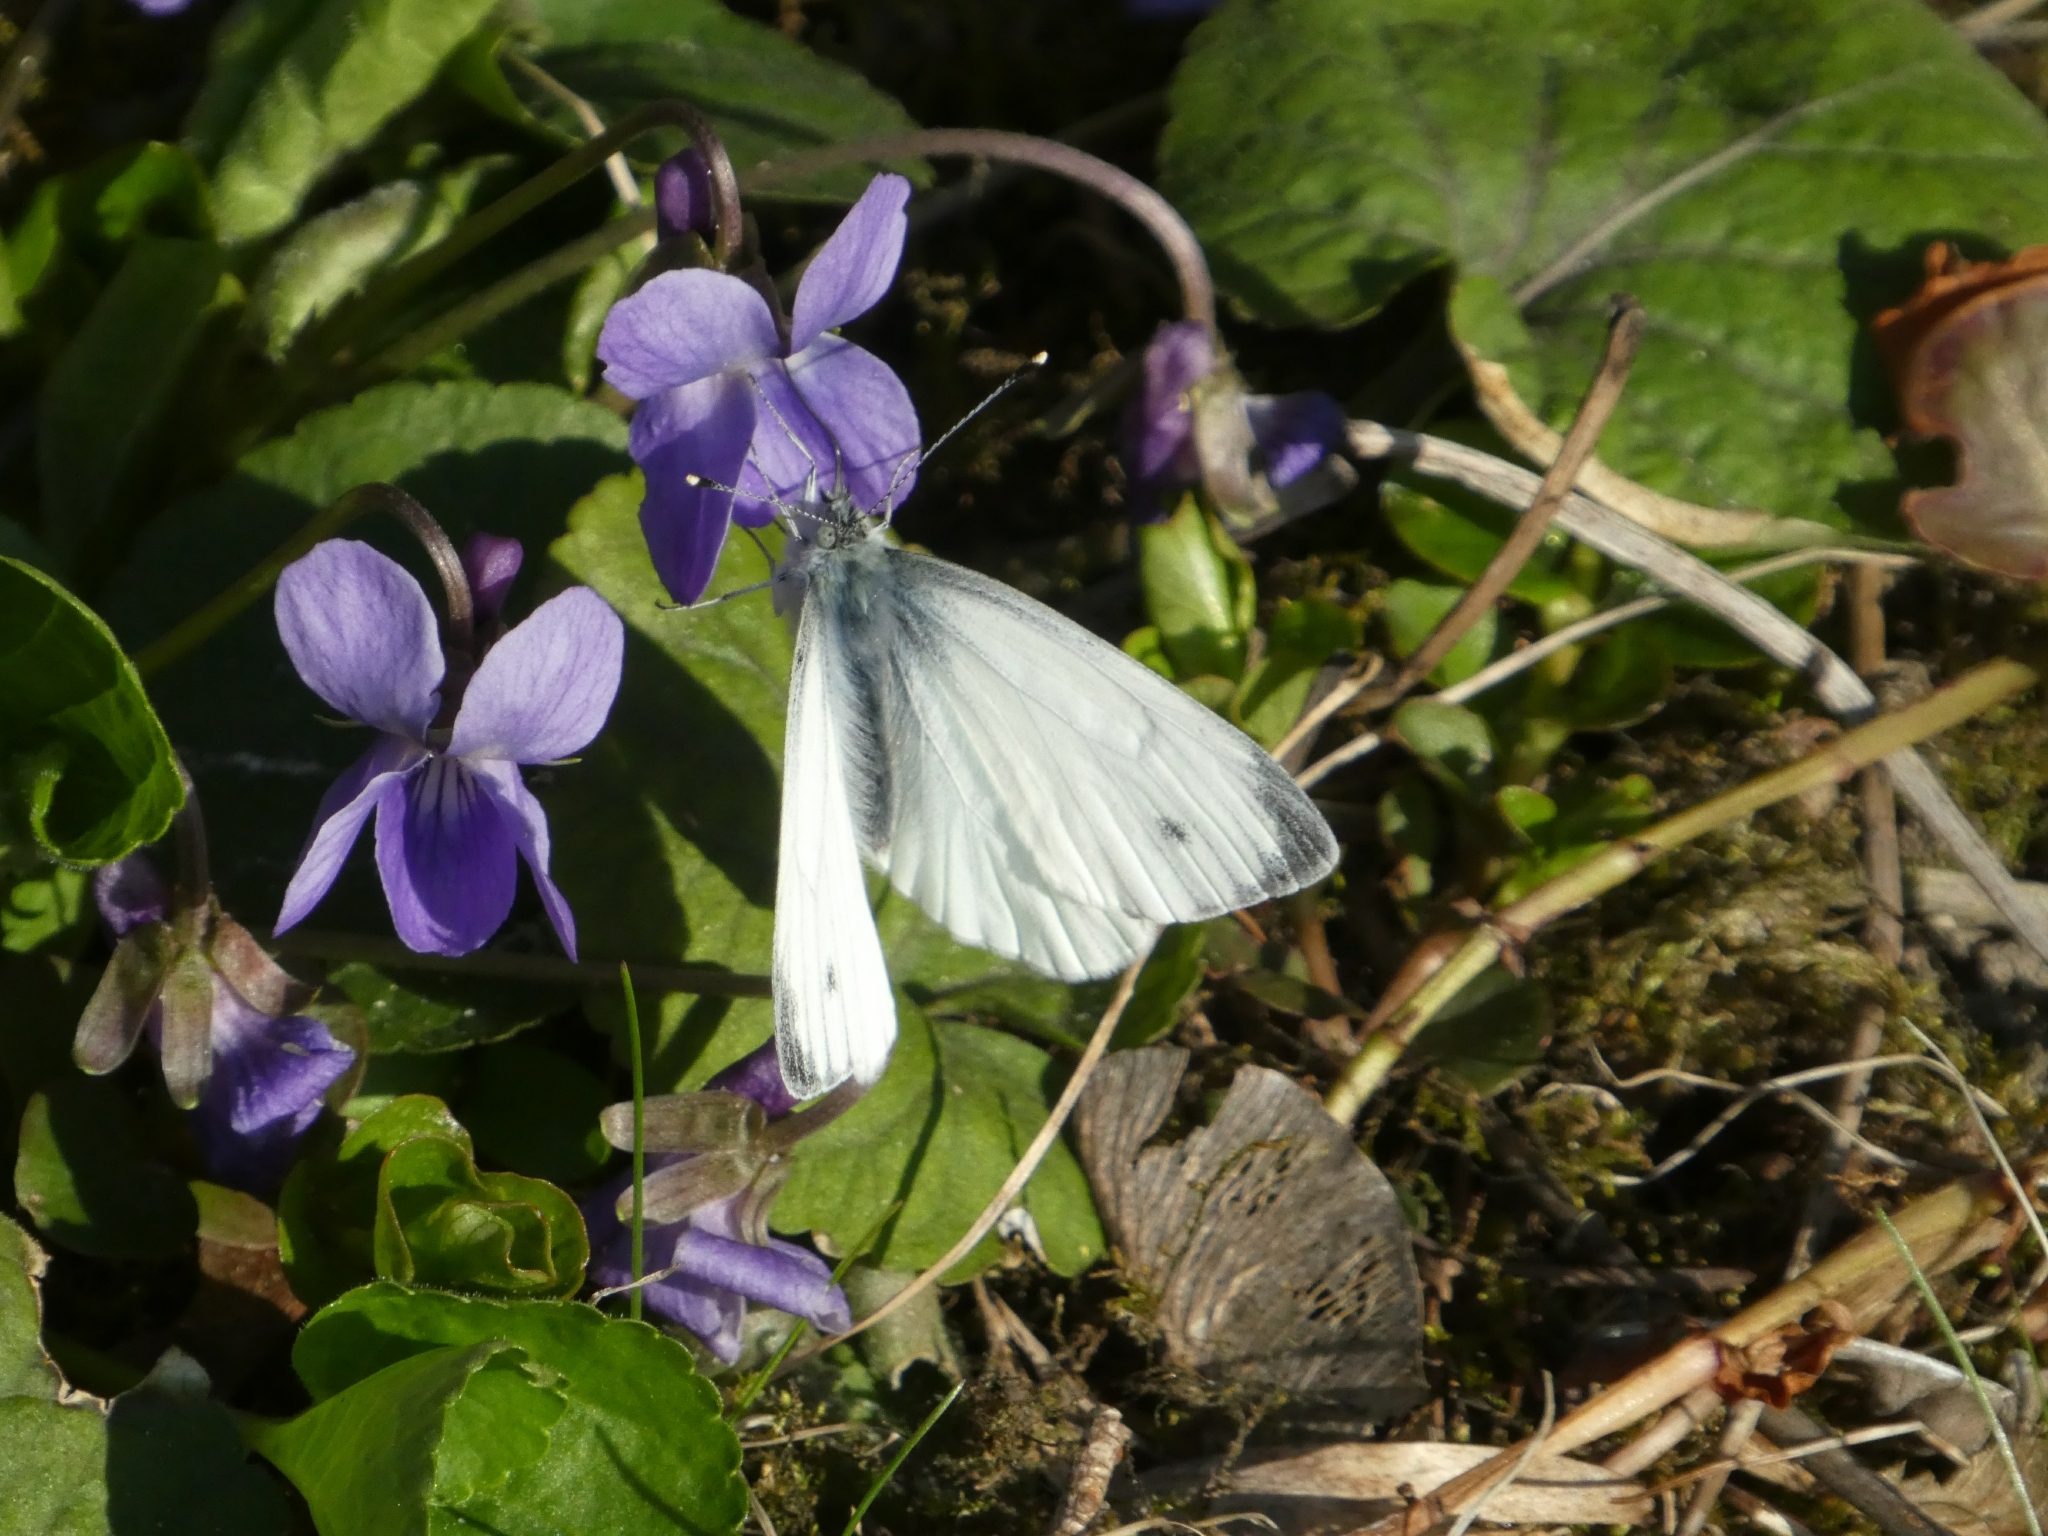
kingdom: Animalia
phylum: Arthropoda
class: Insecta
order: Lepidoptera
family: Pieridae
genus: Pieris
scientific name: Pieris napi
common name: Green-veined white
